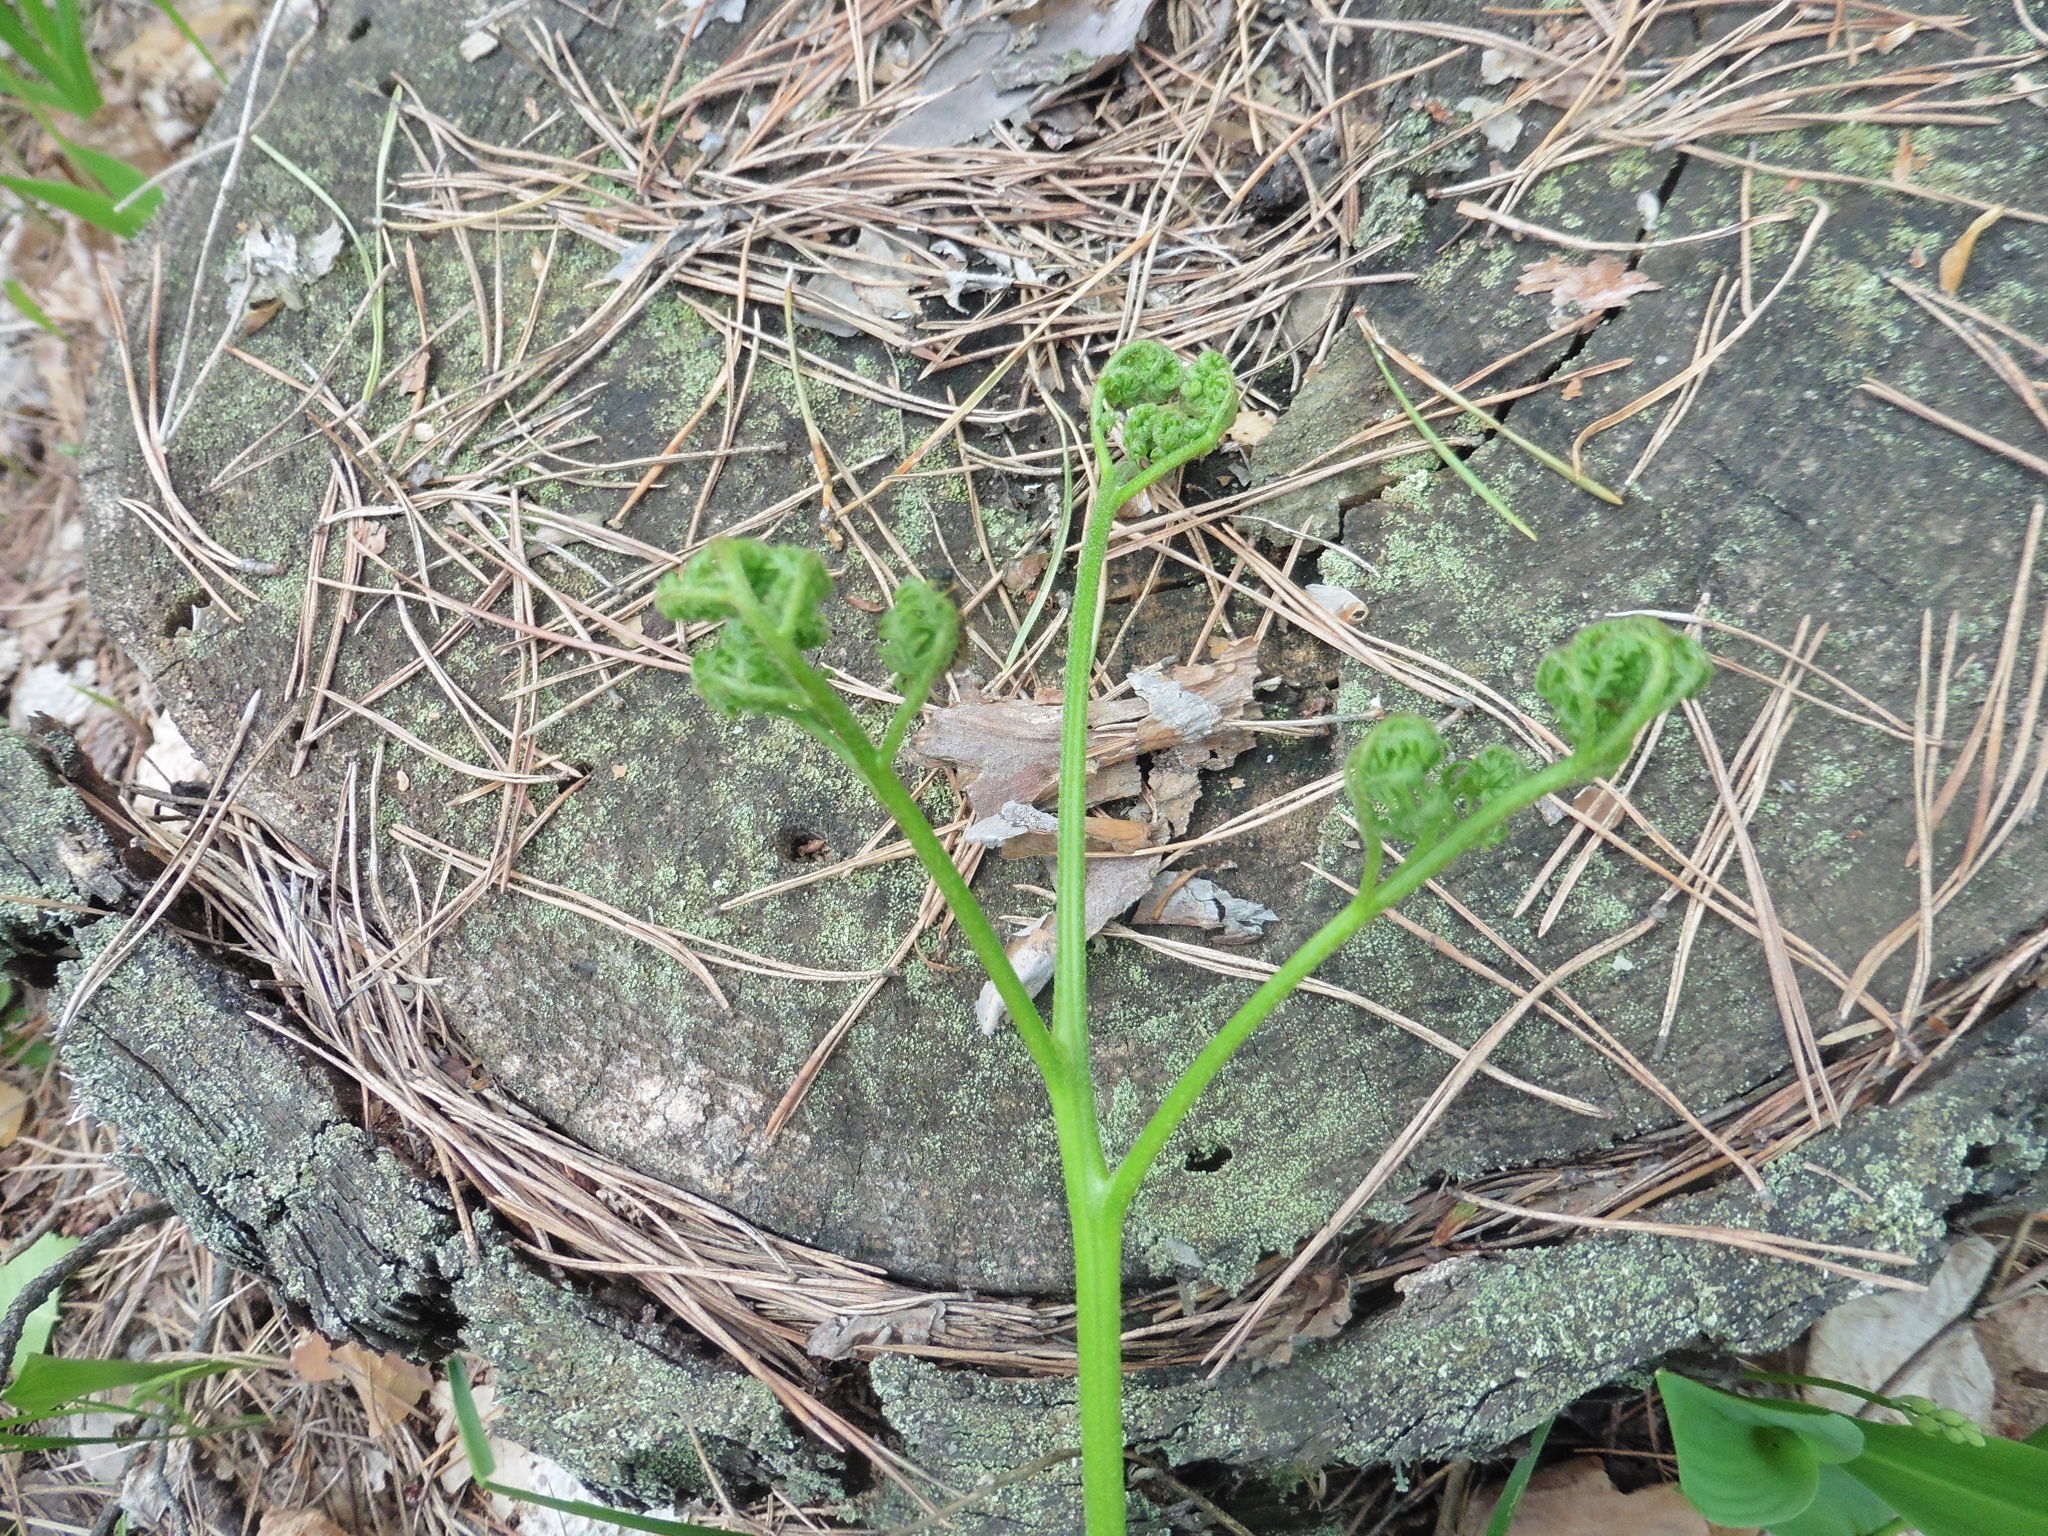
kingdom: Plantae
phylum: Tracheophyta
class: Polypodiopsida
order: Polypodiales
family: Dennstaedtiaceae
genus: Pteridium
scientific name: Pteridium aquilinum
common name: Bracken
